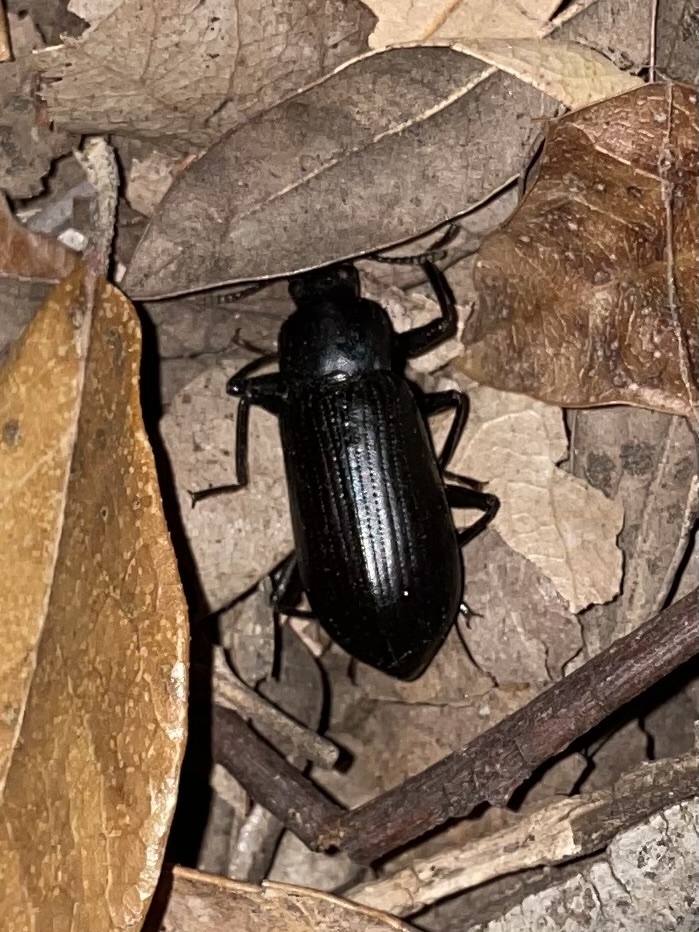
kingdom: Animalia
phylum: Arthropoda
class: Insecta
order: Coleoptera
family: Tenebrionidae
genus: Alobates
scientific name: Alobates
